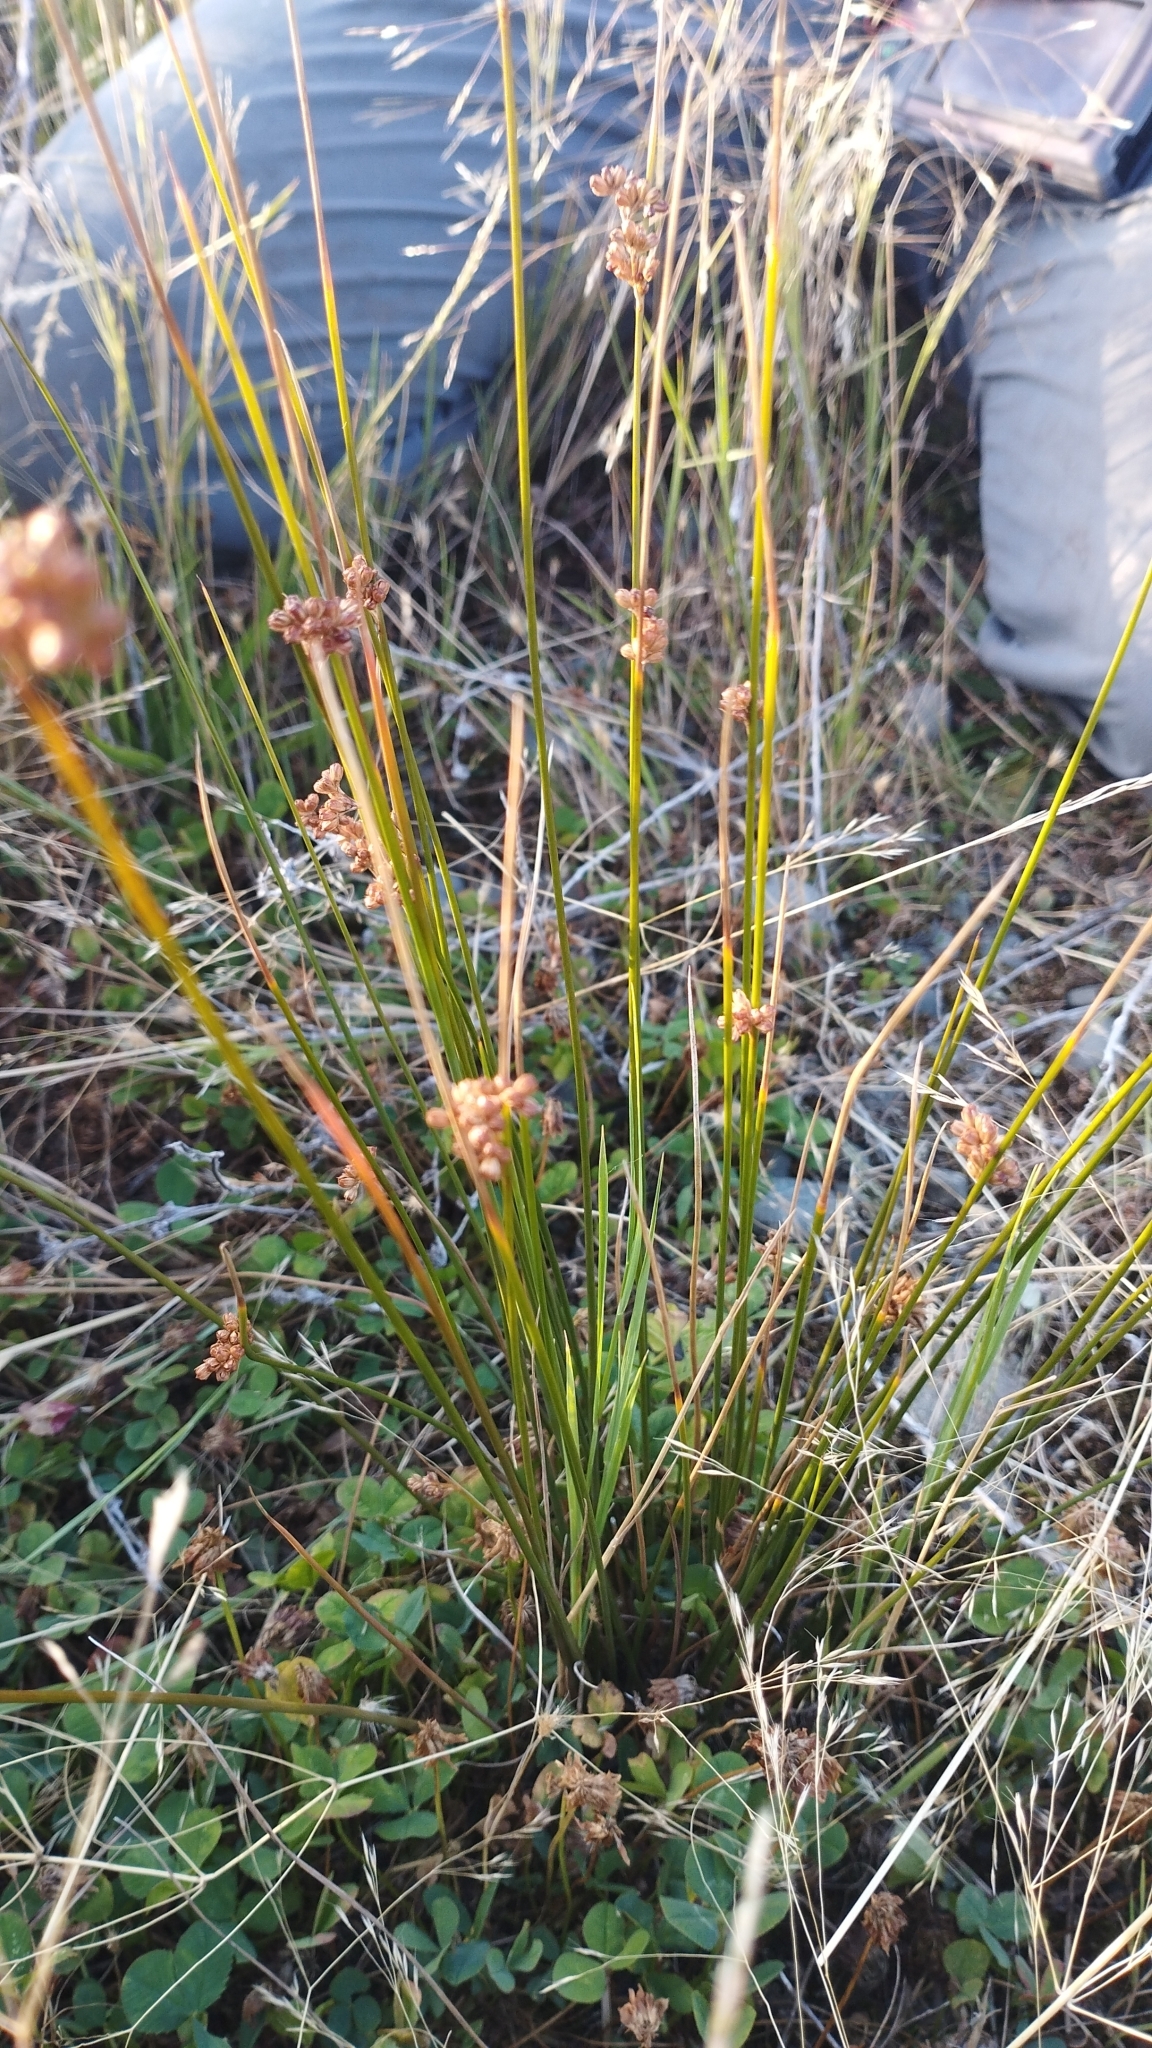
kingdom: Plantae
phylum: Tracheophyta
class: Liliopsida
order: Poales
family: Juncaceae
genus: Juncus
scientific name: Juncus distegus
